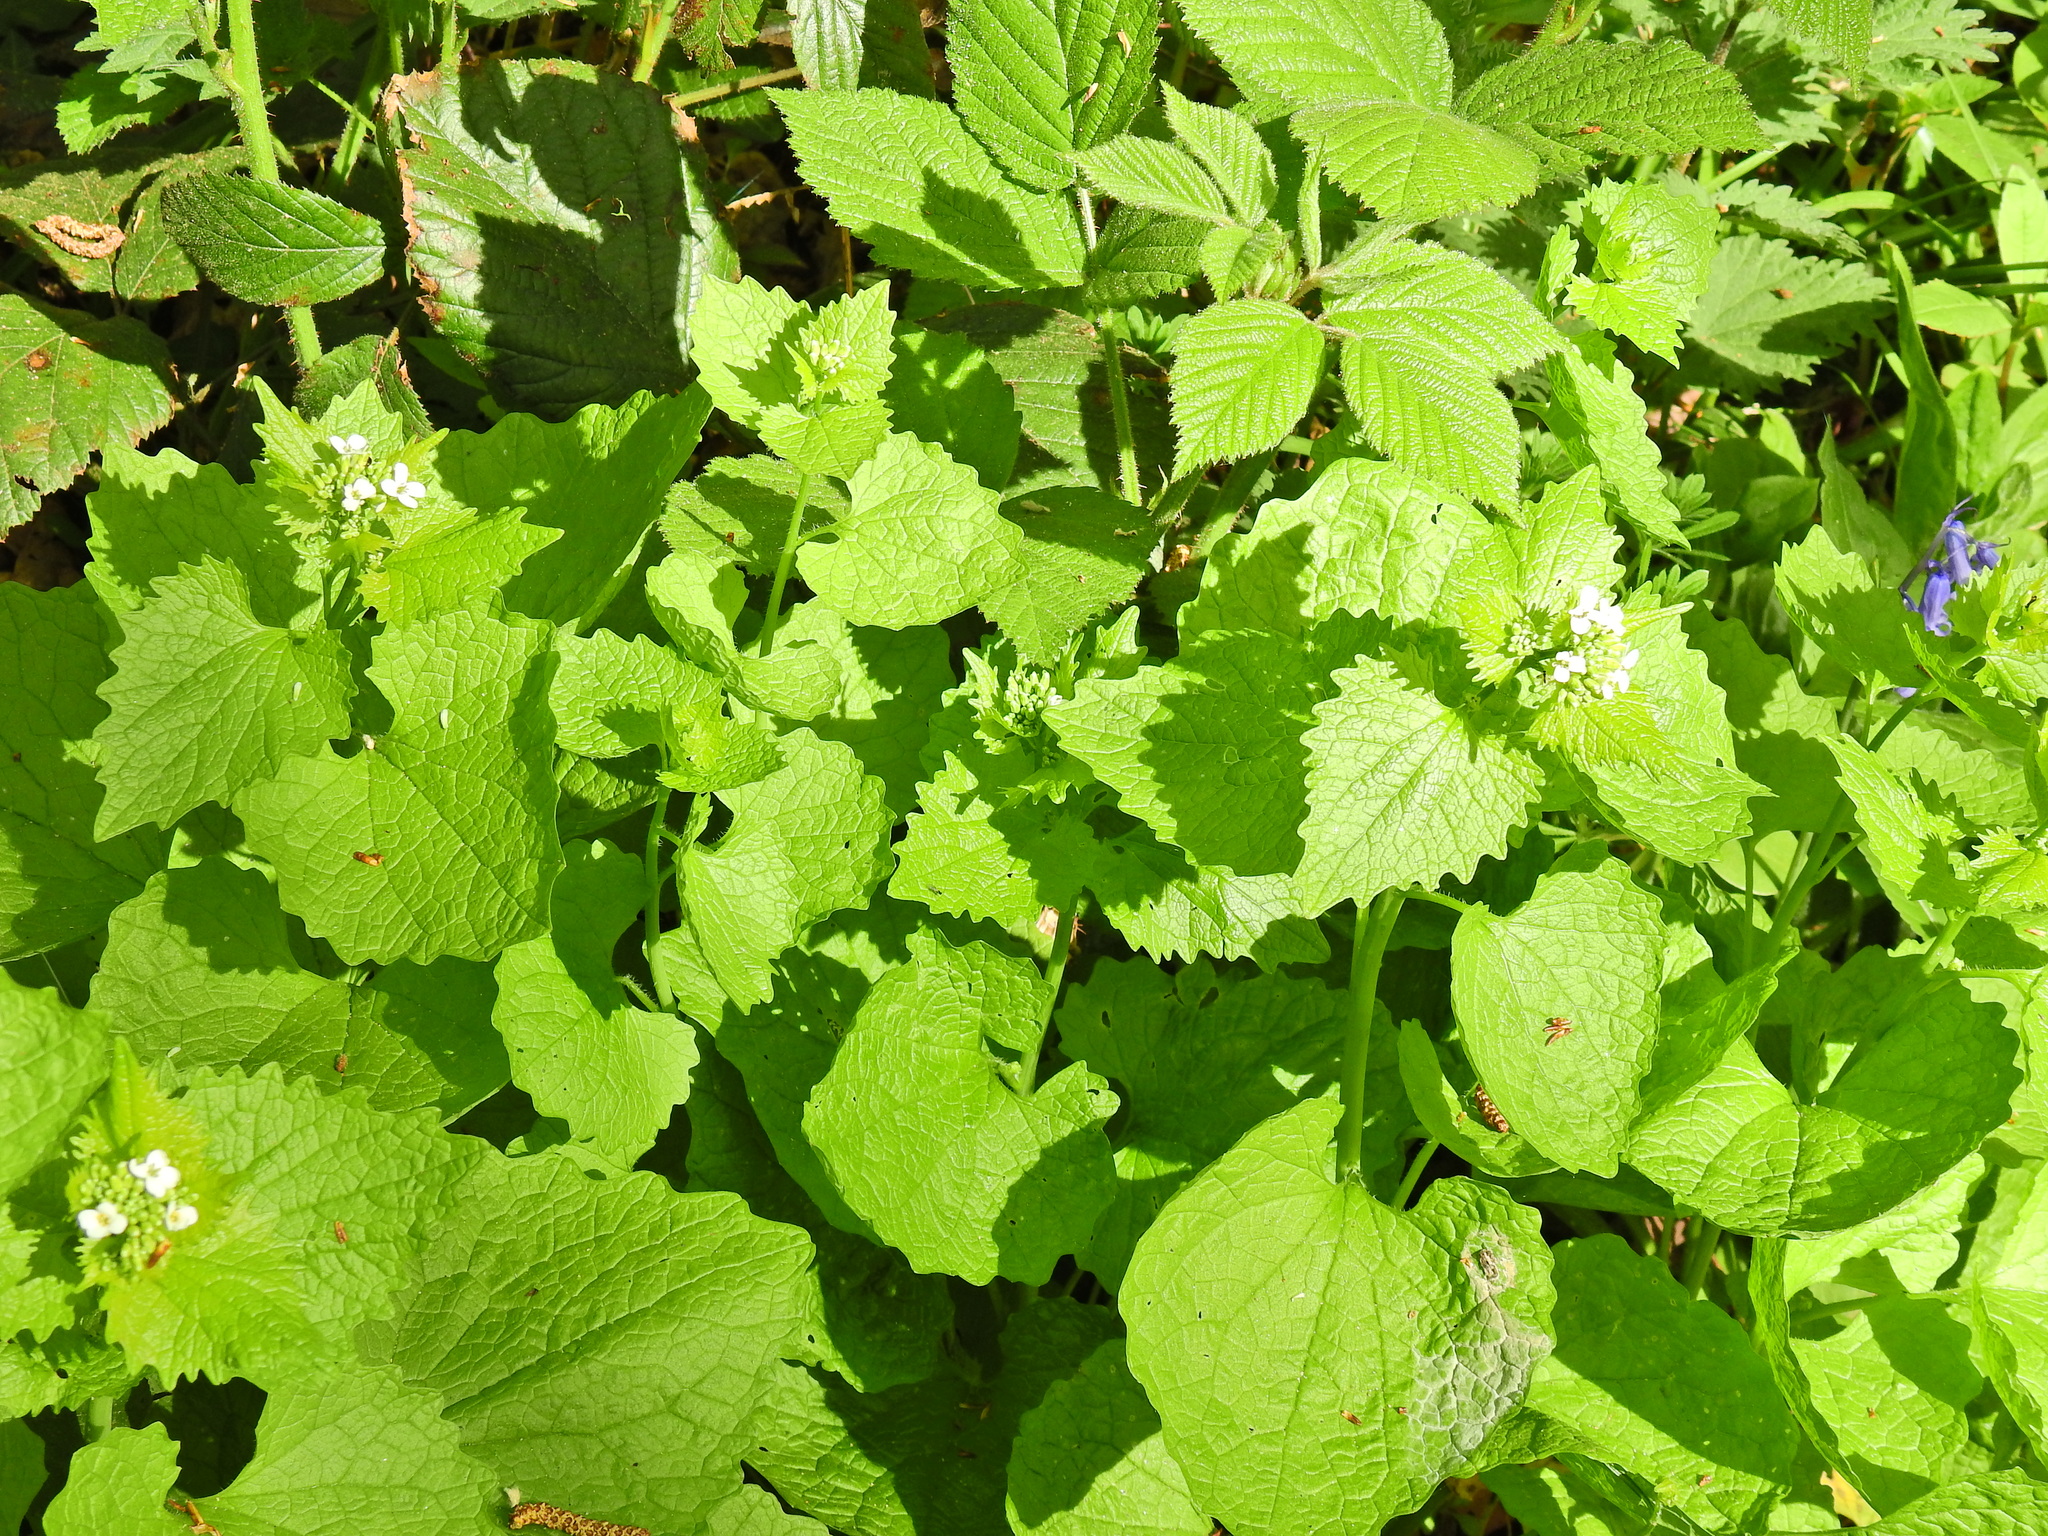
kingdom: Plantae
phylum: Tracheophyta
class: Magnoliopsida
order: Brassicales
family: Brassicaceae
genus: Alliaria
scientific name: Alliaria petiolata
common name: Garlic mustard
